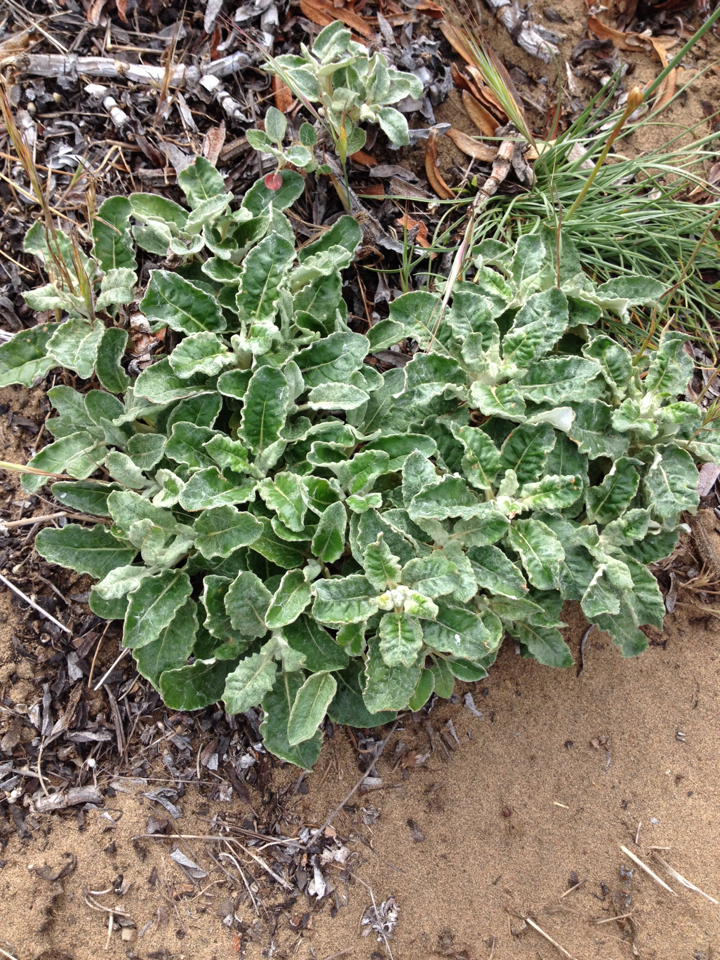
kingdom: Plantae
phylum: Tracheophyta
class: Magnoliopsida
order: Caryophyllales
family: Polygonaceae
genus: Eriogonum
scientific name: Eriogonum latifolium
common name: Seaside wild buckwheat
